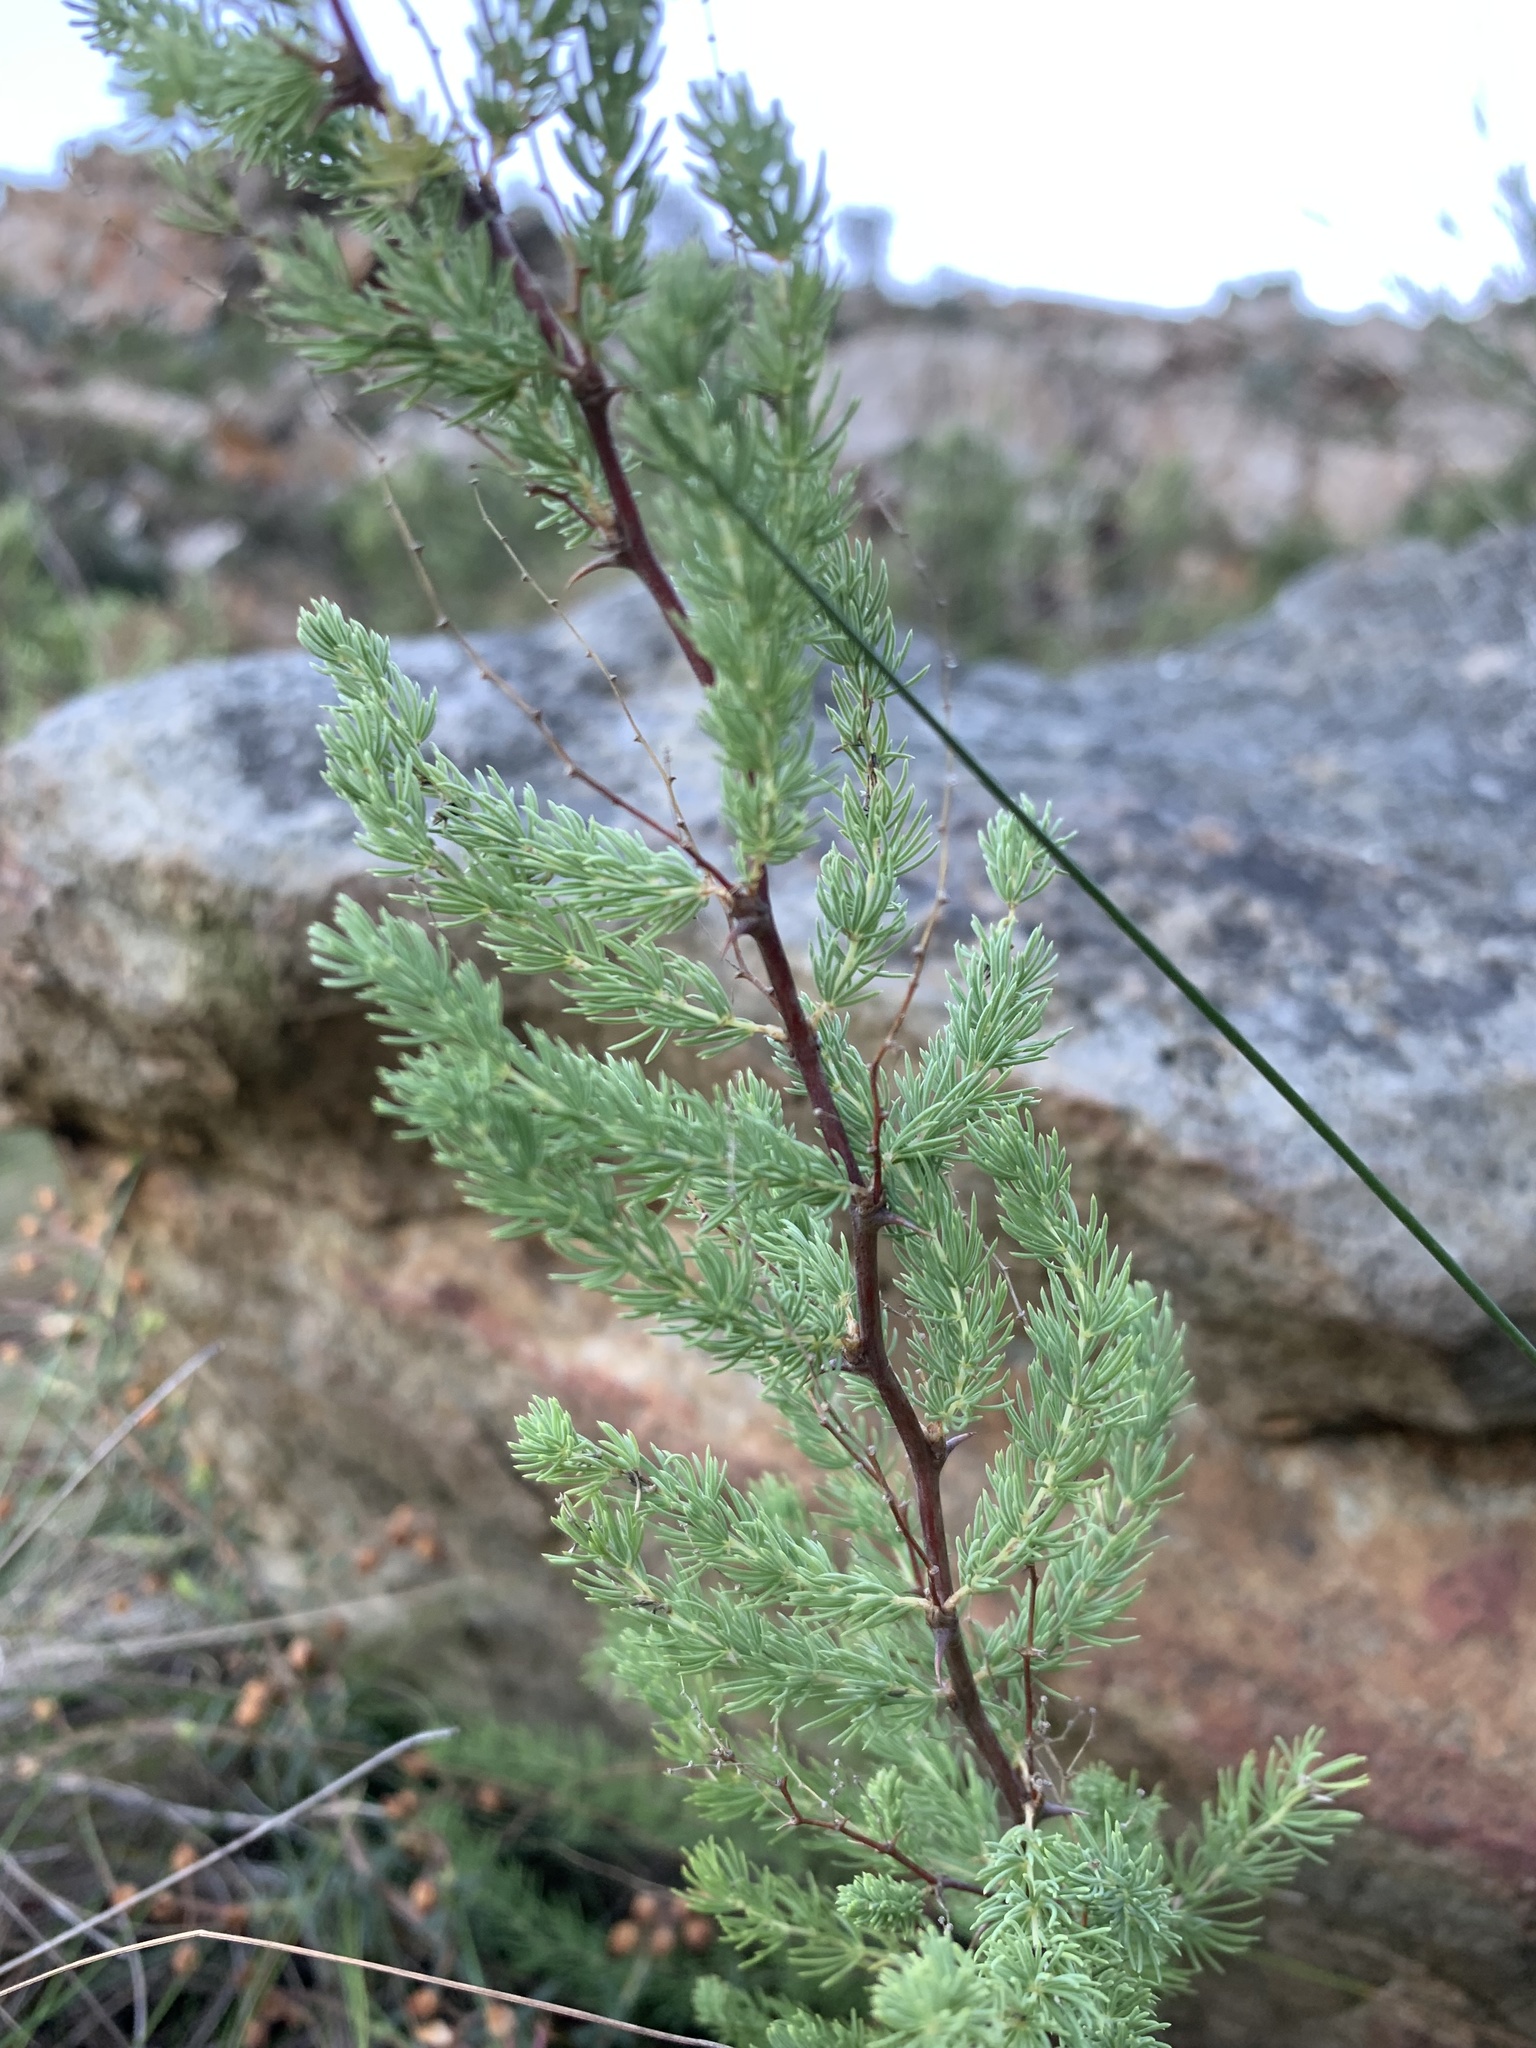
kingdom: Plantae
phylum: Tracheophyta
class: Liliopsida
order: Asparagales
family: Asparagaceae
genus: Asparagus
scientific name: Asparagus rubicundus
